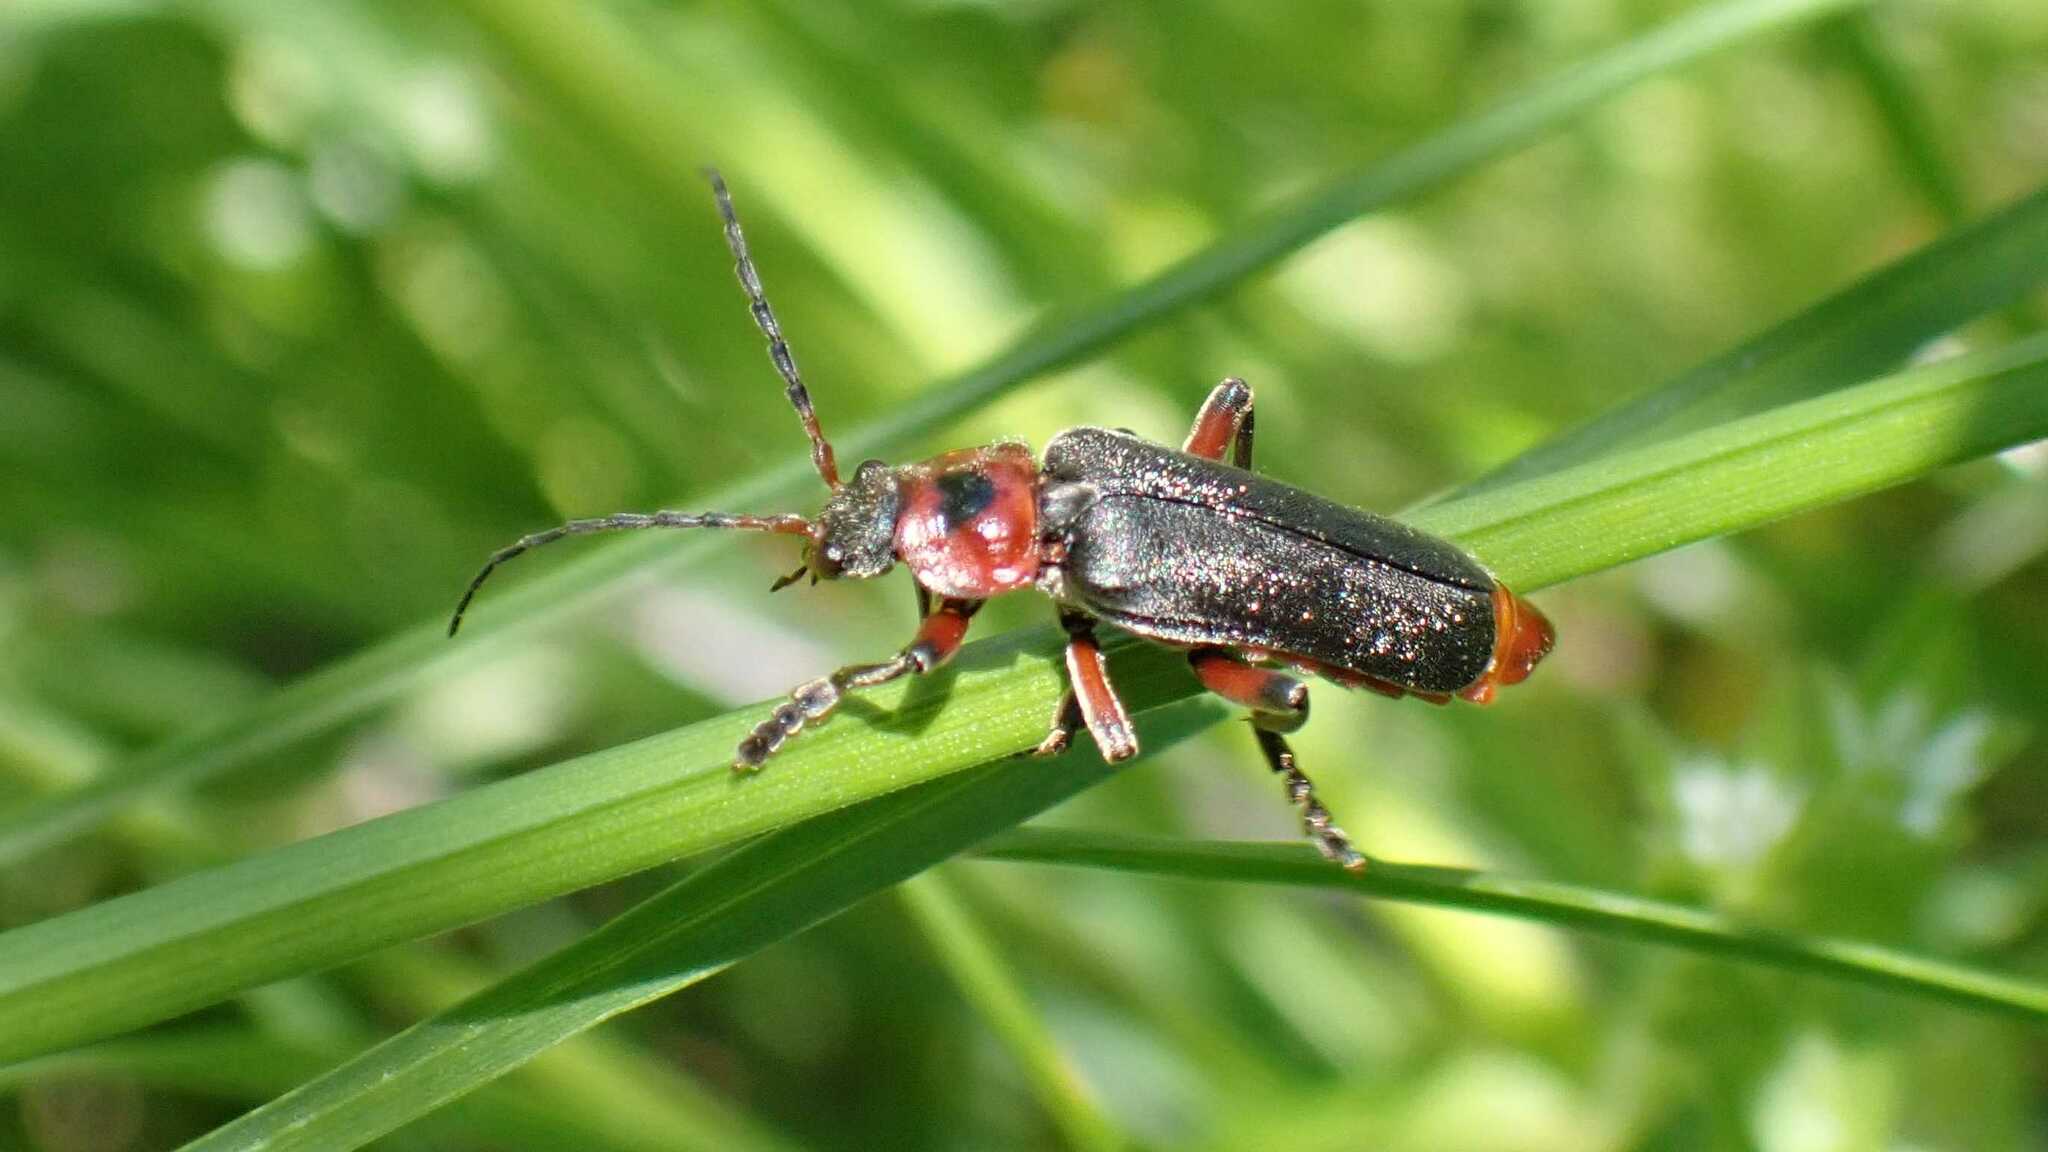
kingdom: Animalia
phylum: Arthropoda
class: Insecta
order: Coleoptera
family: Cantharidae
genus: Cantharis
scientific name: Cantharis rustica
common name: Soldier beetle
